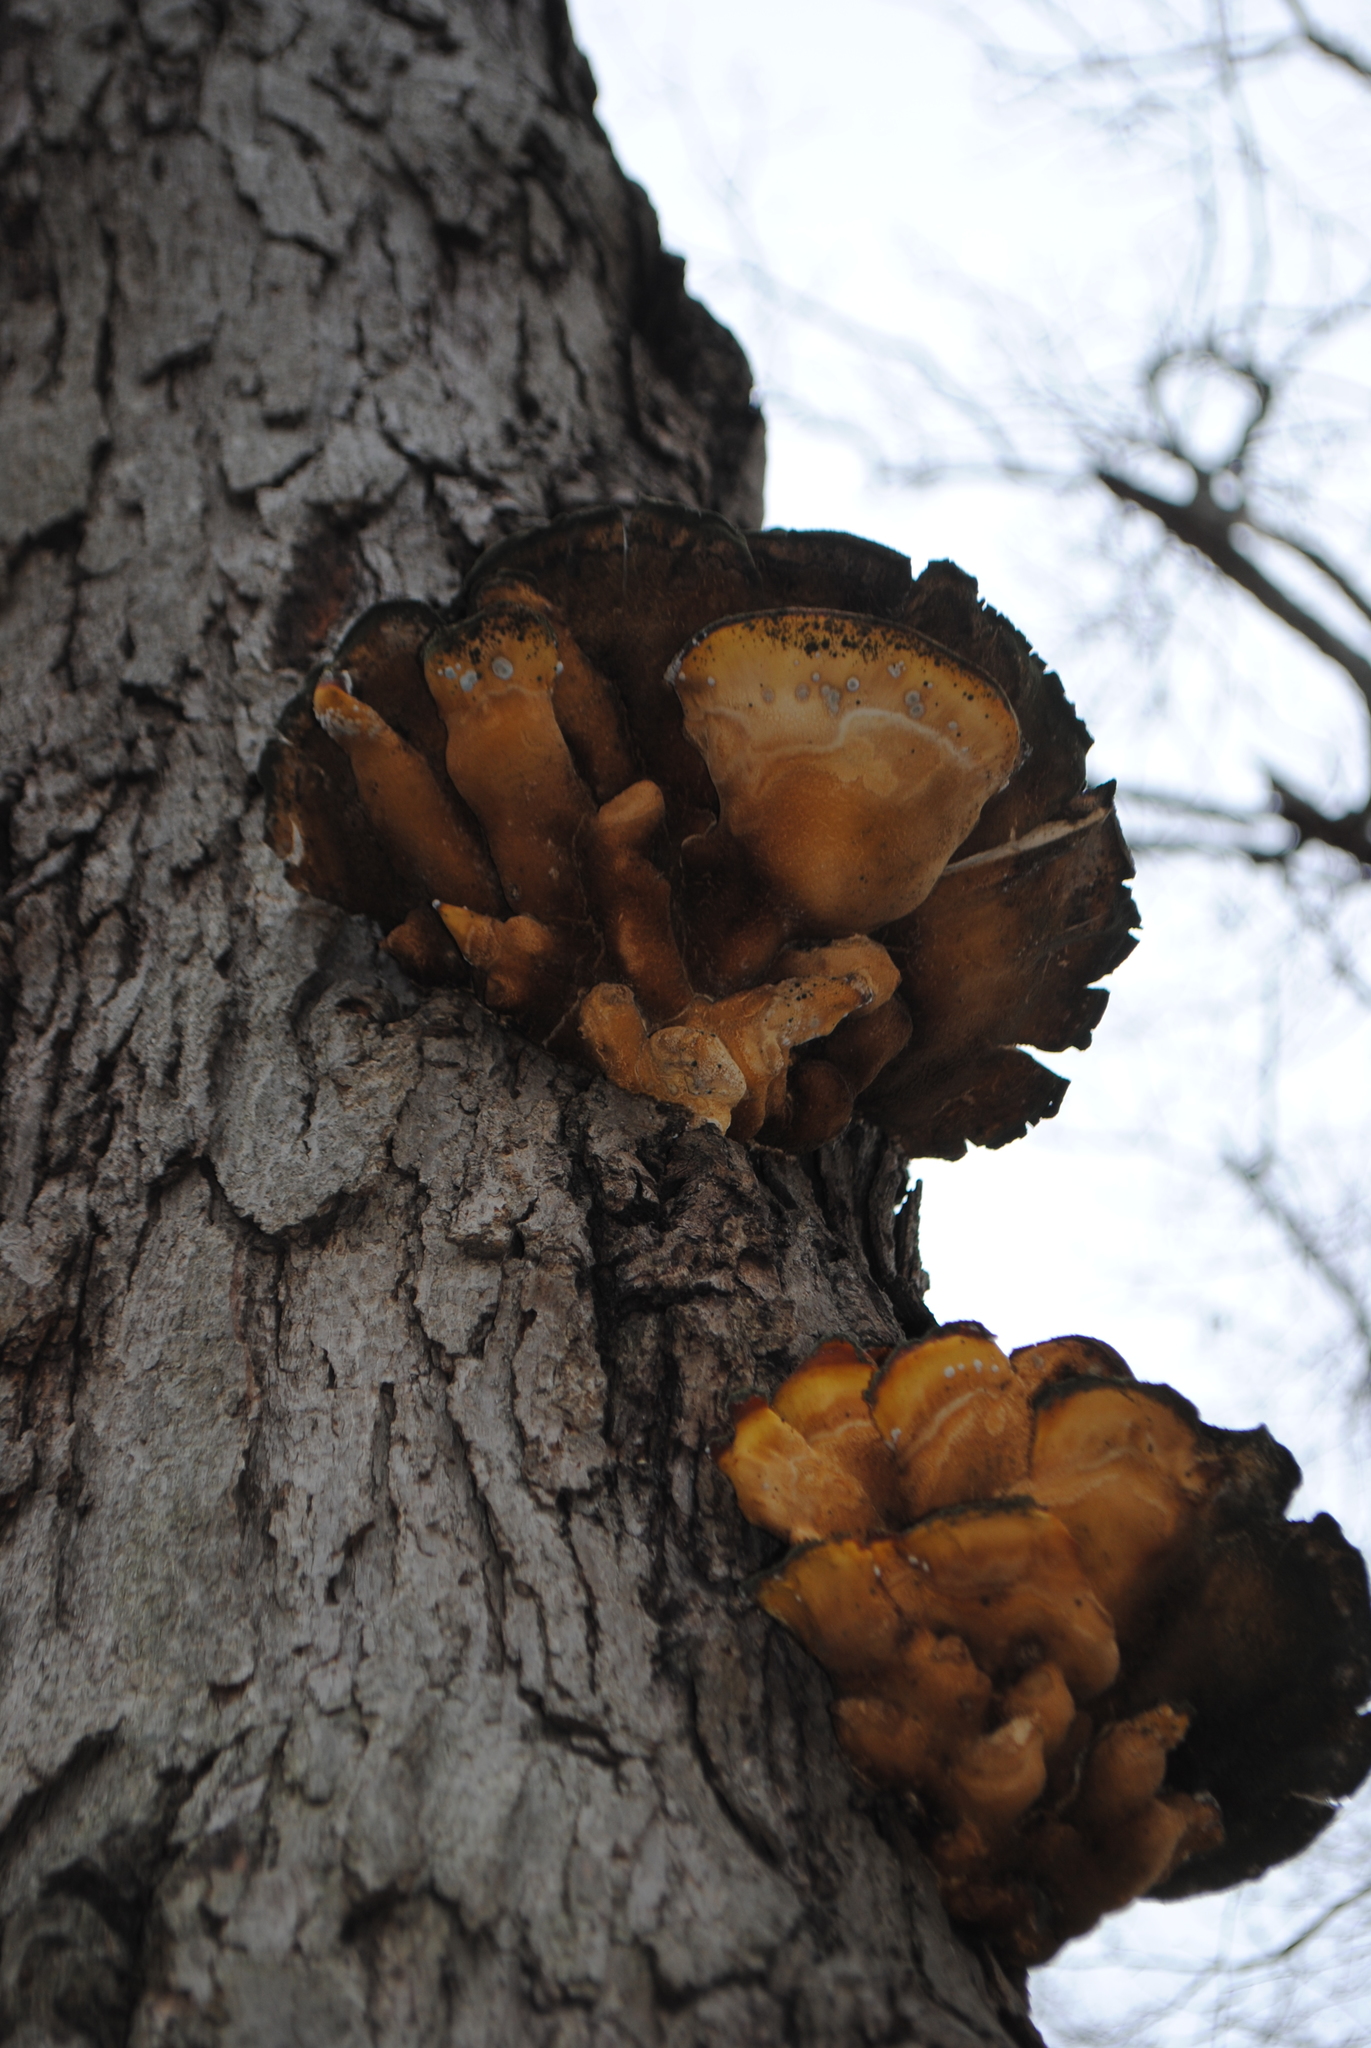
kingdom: Fungi
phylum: Basidiomycota
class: Agaricomycetes
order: Polyporales
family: Laetiporaceae
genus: Laetiporus
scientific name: Laetiporus sulphureus
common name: Chicken of the woods
